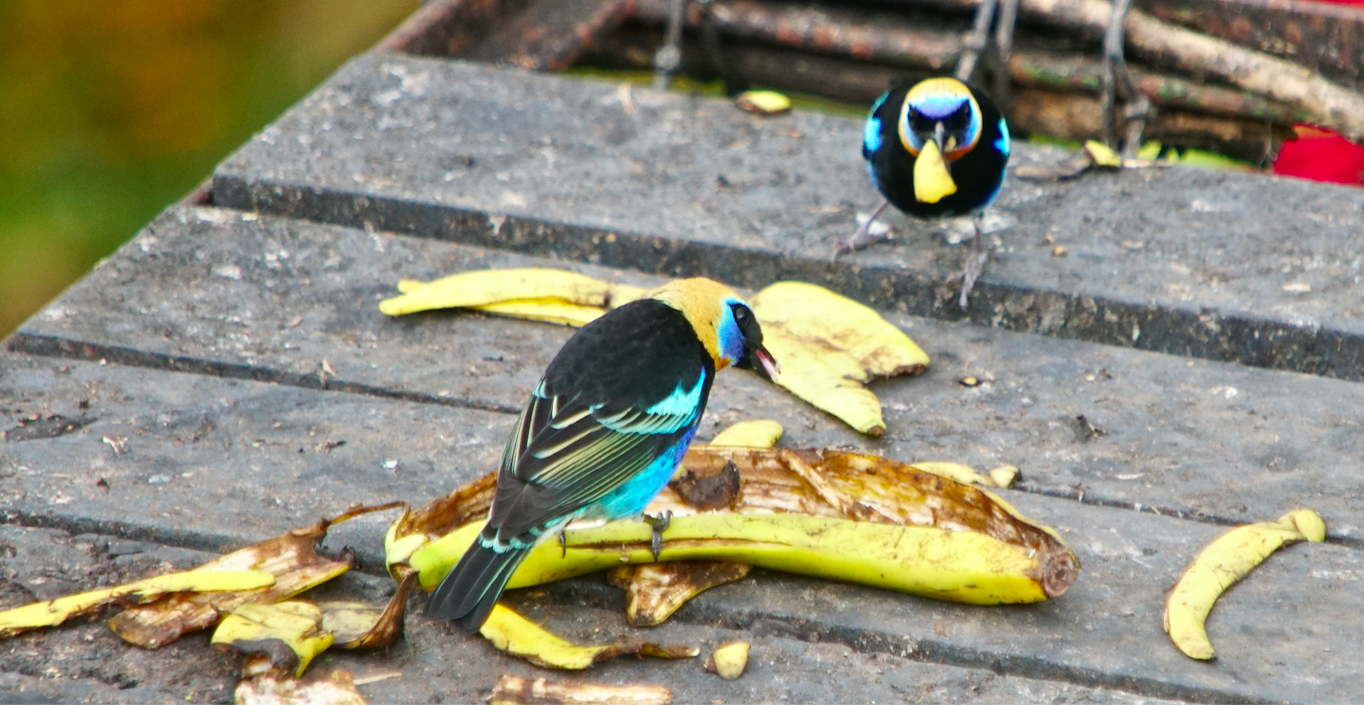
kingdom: Animalia
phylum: Chordata
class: Aves
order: Passeriformes
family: Thraupidae
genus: Stilpnia
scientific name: Stilpnia larvata
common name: Golden-hooded tanager
